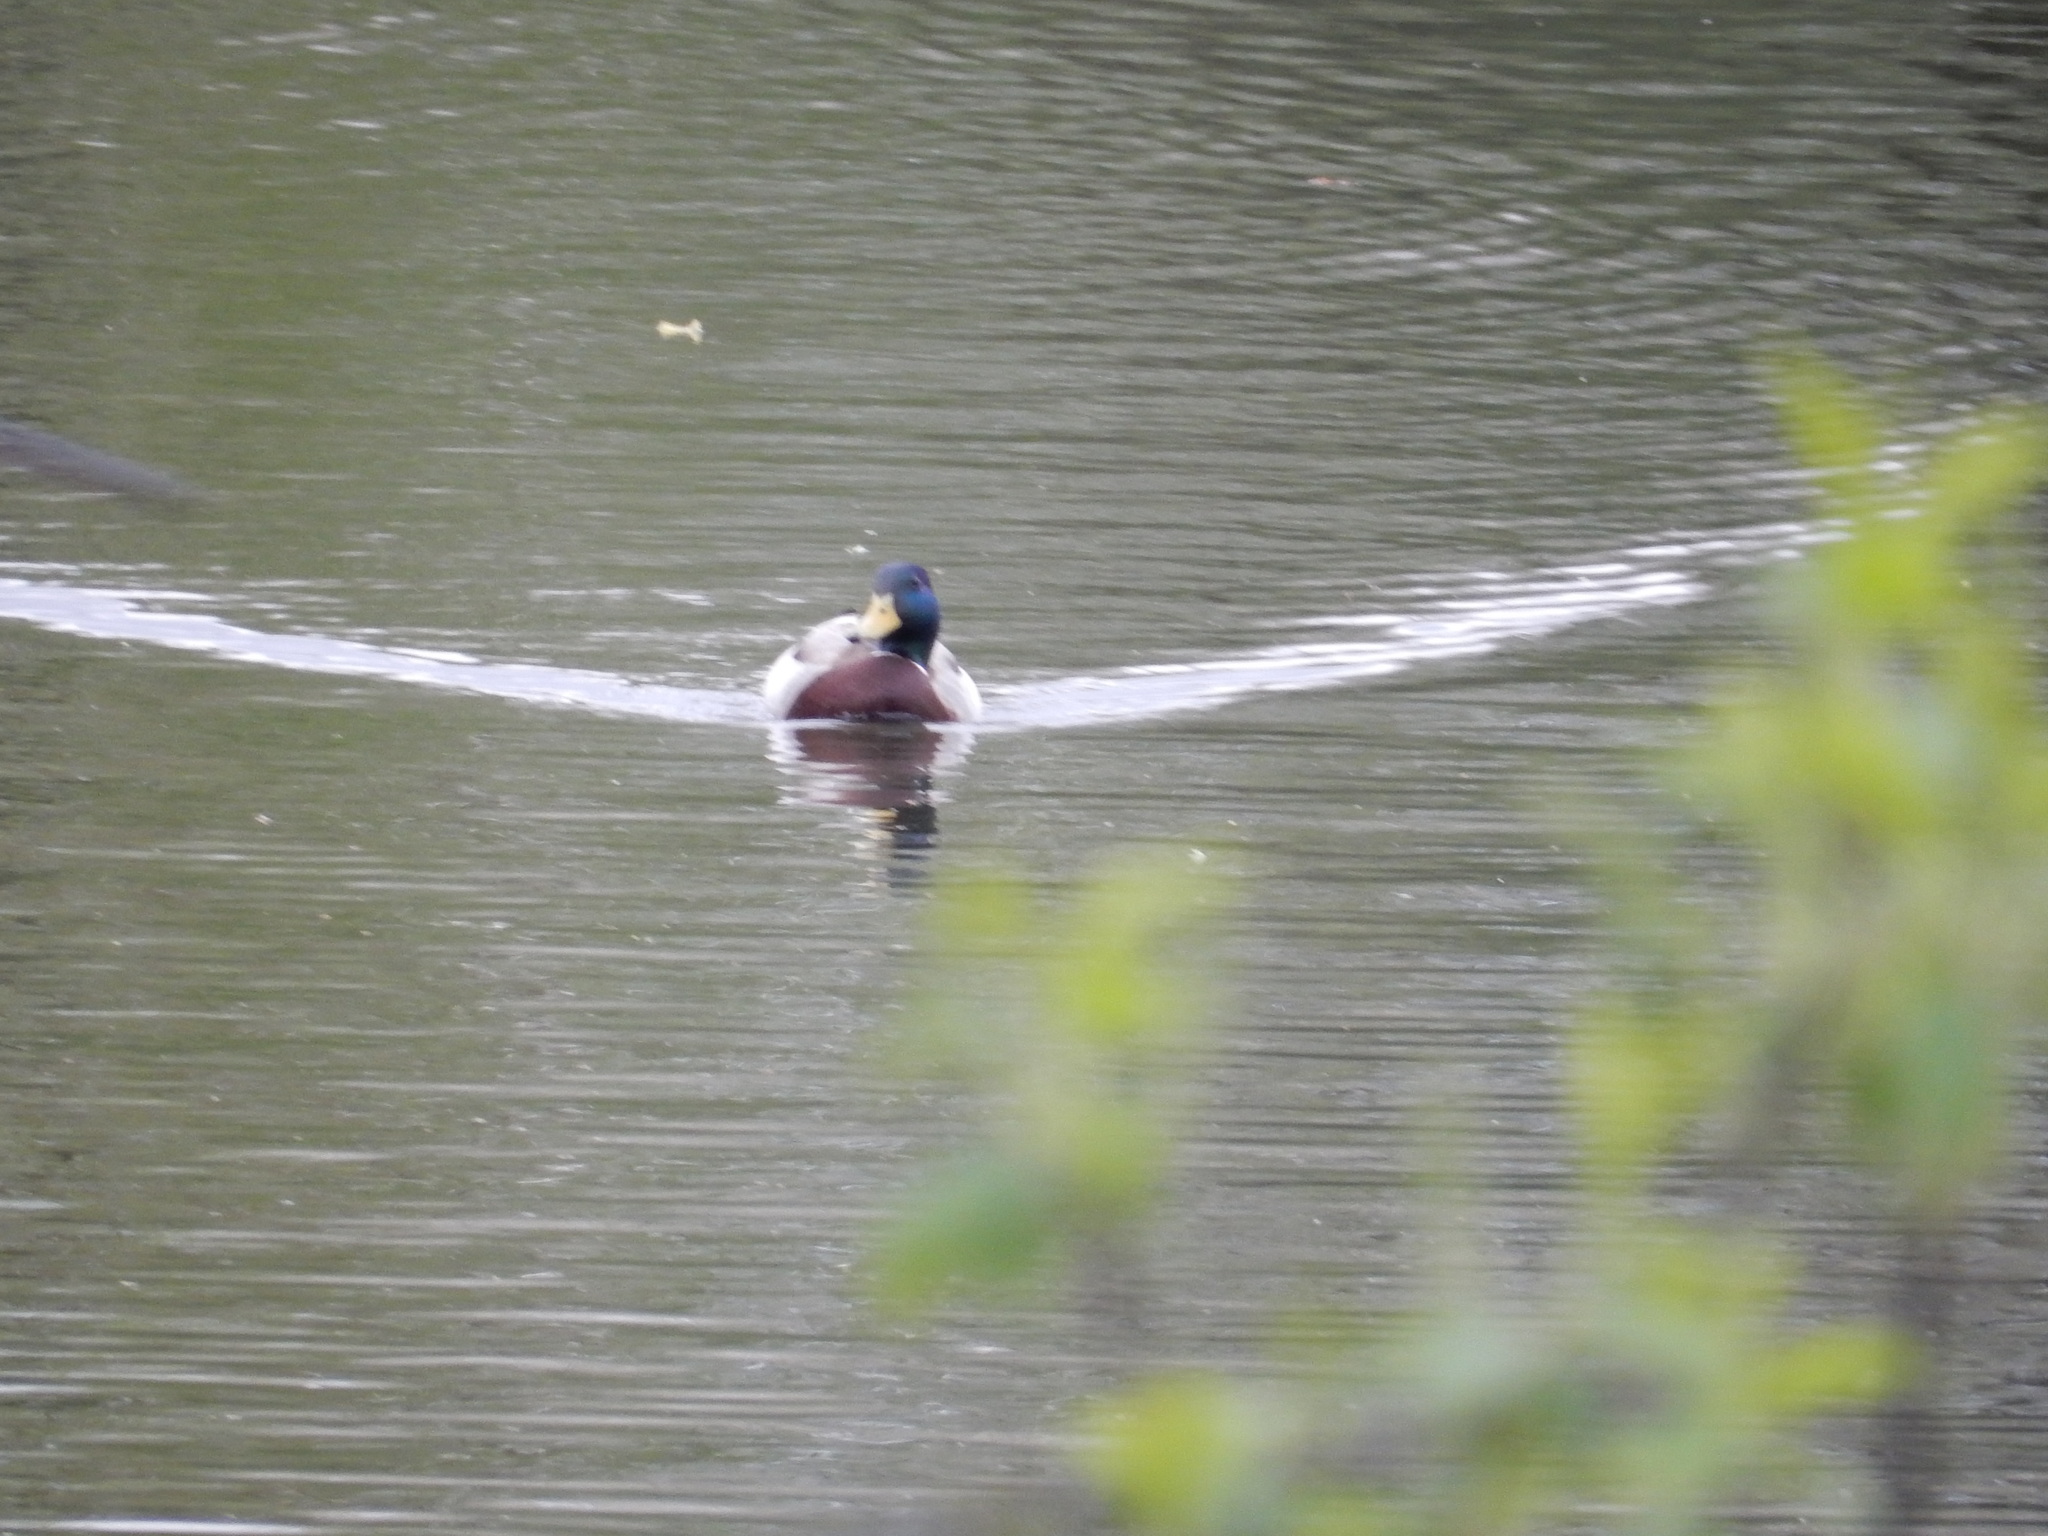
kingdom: Animalia
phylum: Chordata
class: Aves
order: Anseriformes
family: Anatidae
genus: Anas
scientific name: Anas platyrhynchos
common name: Mallard
